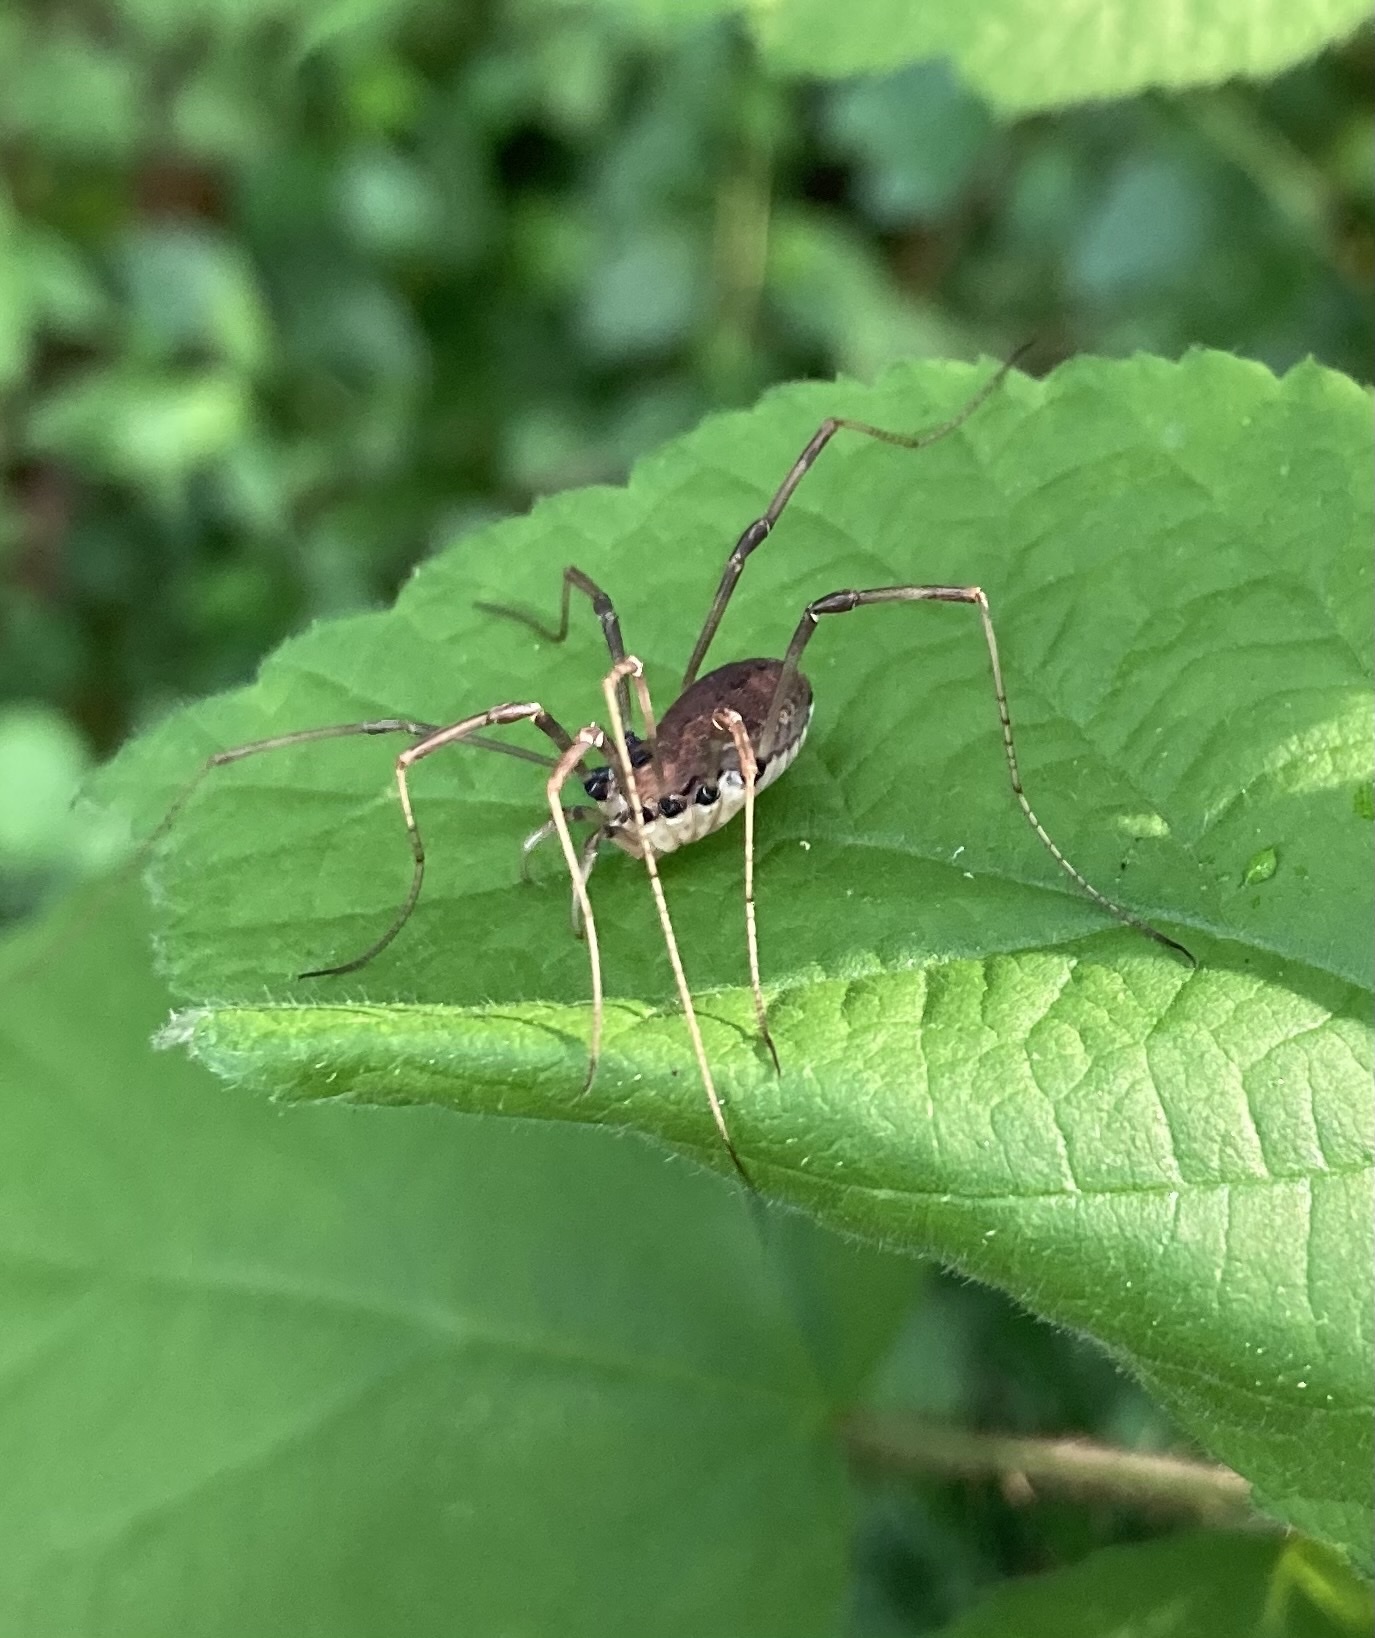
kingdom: Animalia
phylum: Arthropoda
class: Arachnida
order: Opiliones
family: Sclerosomatidae
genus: Hadrobunus
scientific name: Hadrobunus maculosus
